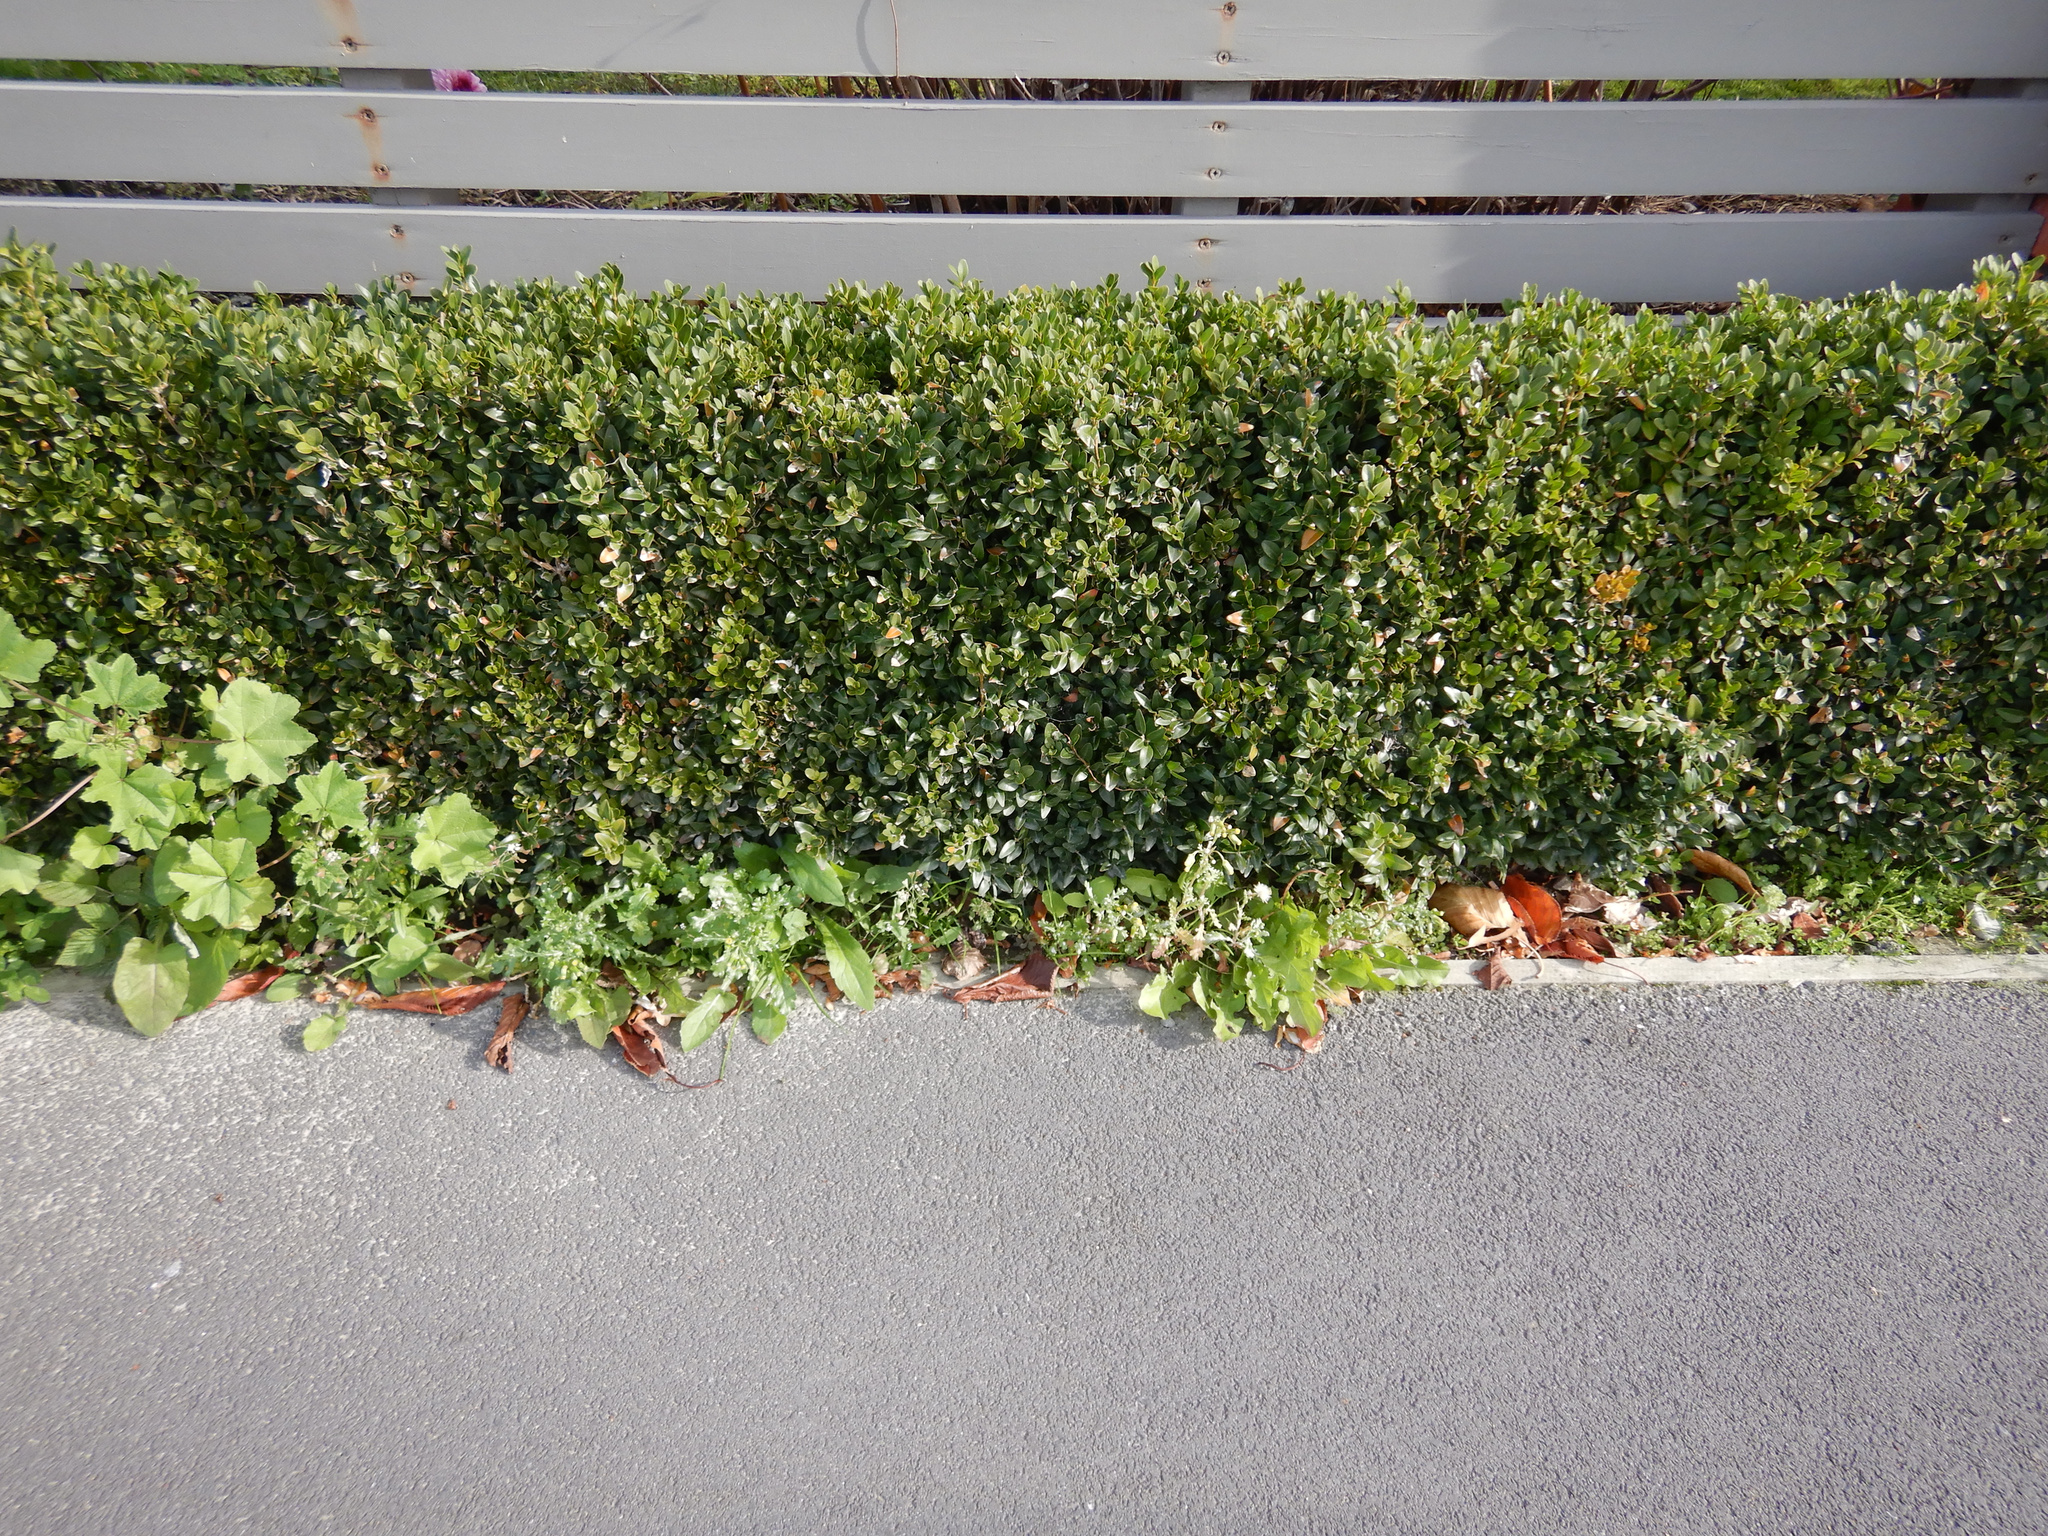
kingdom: Plantae
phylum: Tracheophyta
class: Magnoliopsida
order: Asterales
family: Asteraceae
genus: Senecio
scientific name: Senecio vulgaris
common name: Old-man-in-the-spring
